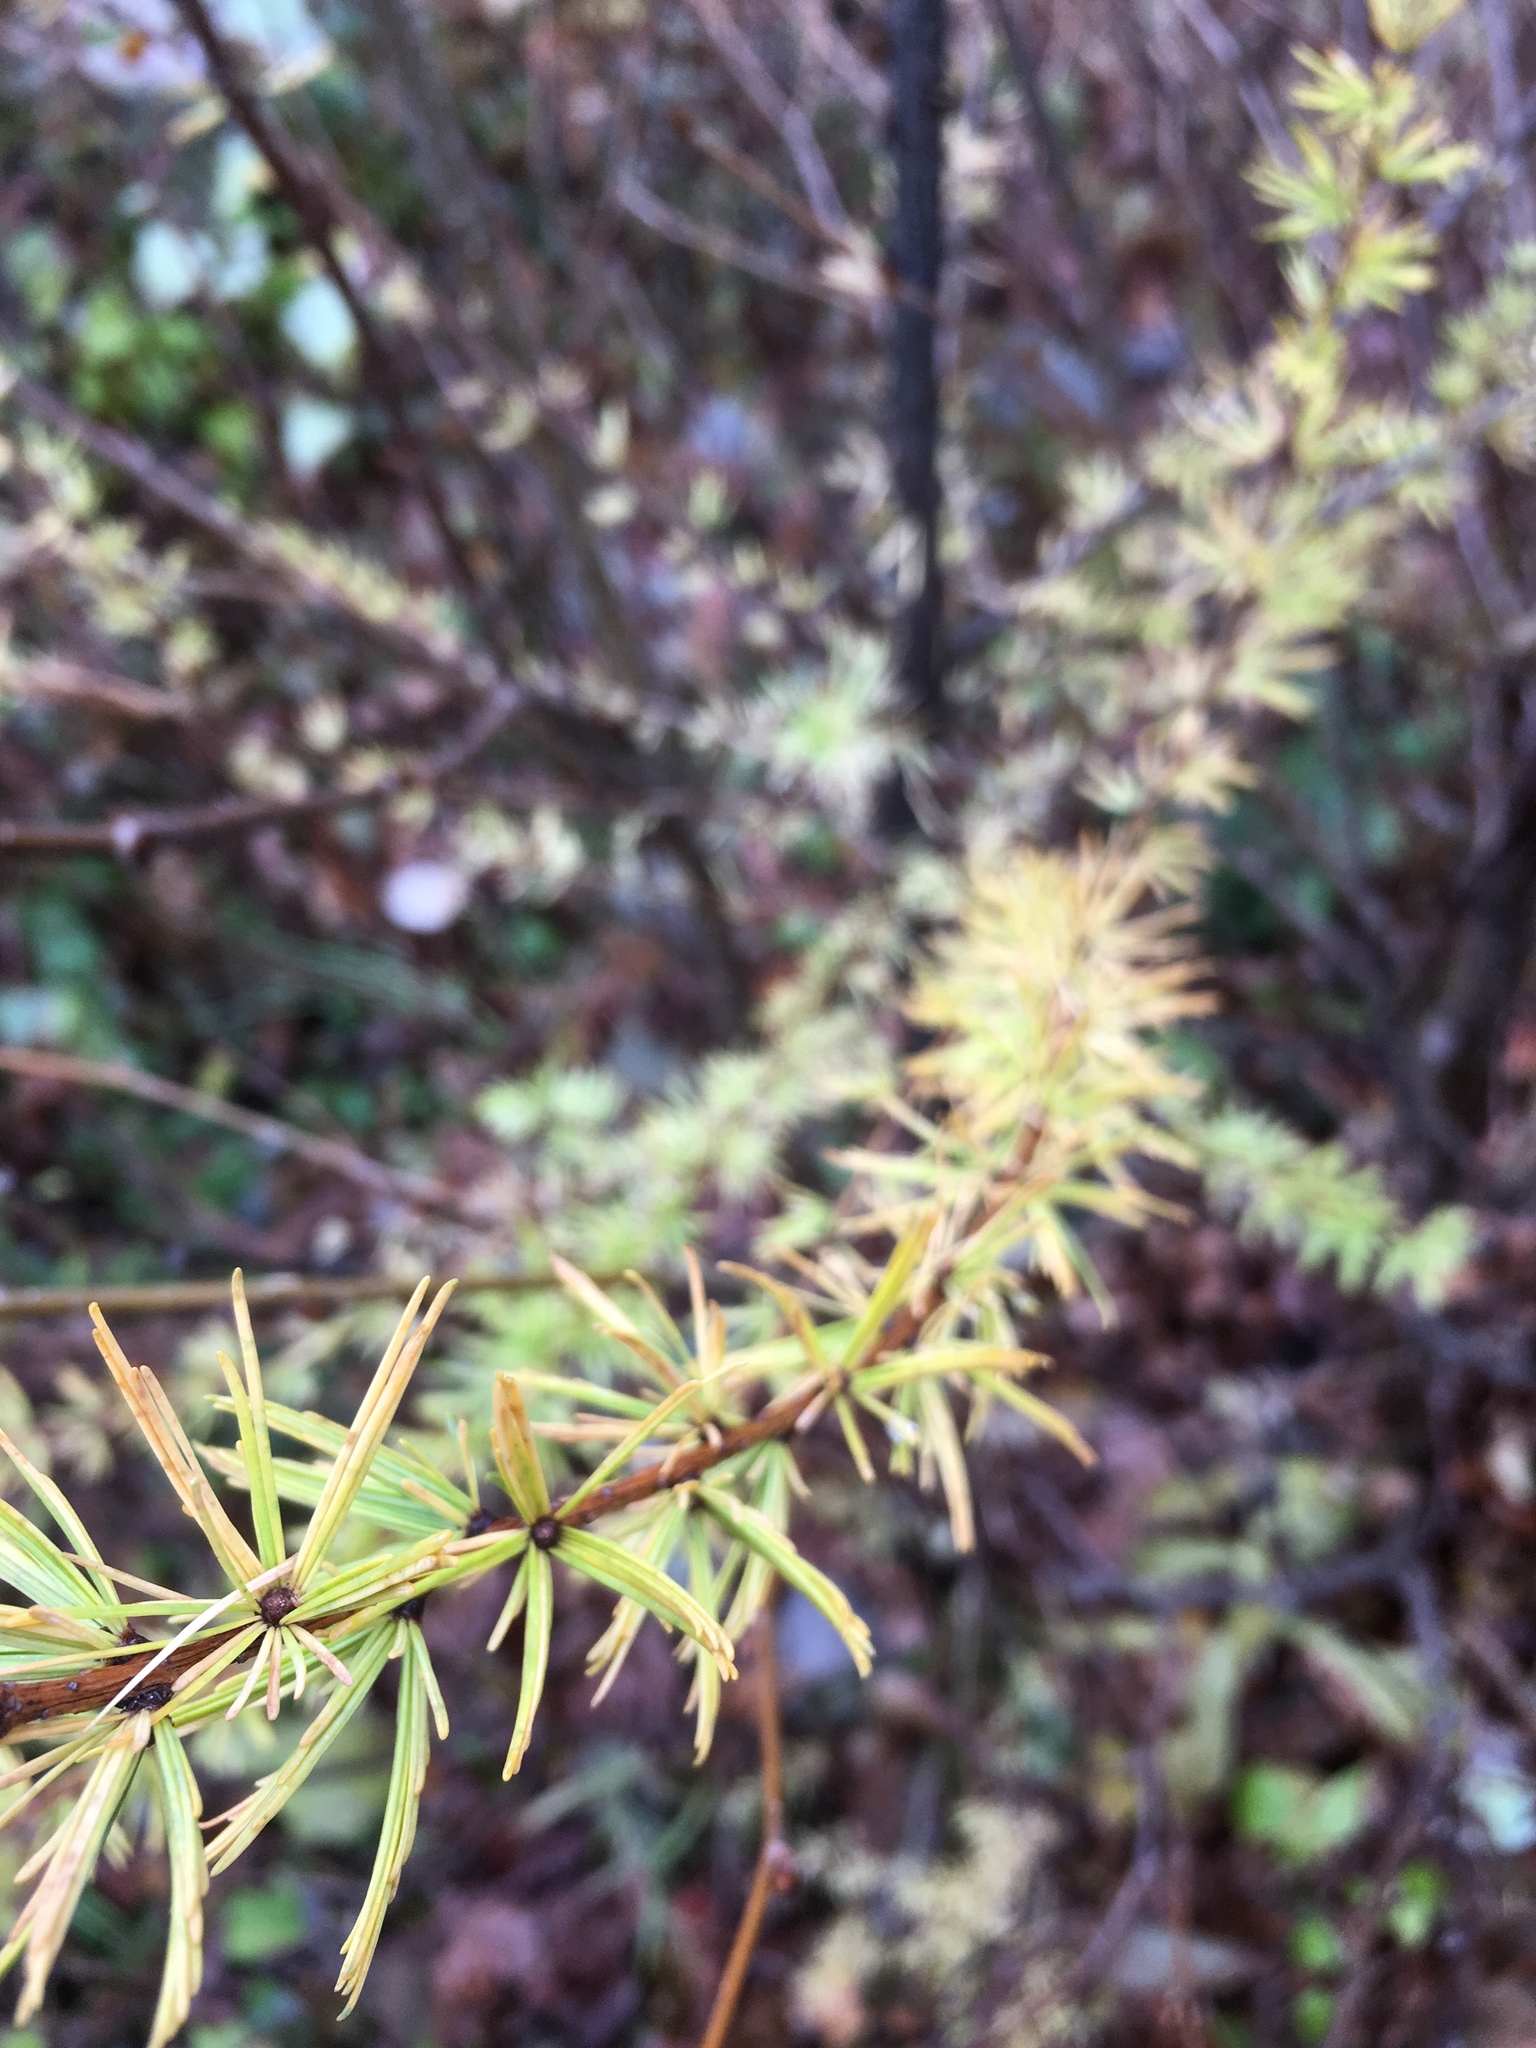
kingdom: Plantae
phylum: Tracheophyta
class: Pinopsida
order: Pinales
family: Pinaceae
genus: Larix
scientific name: Larix laricina
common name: American larch
